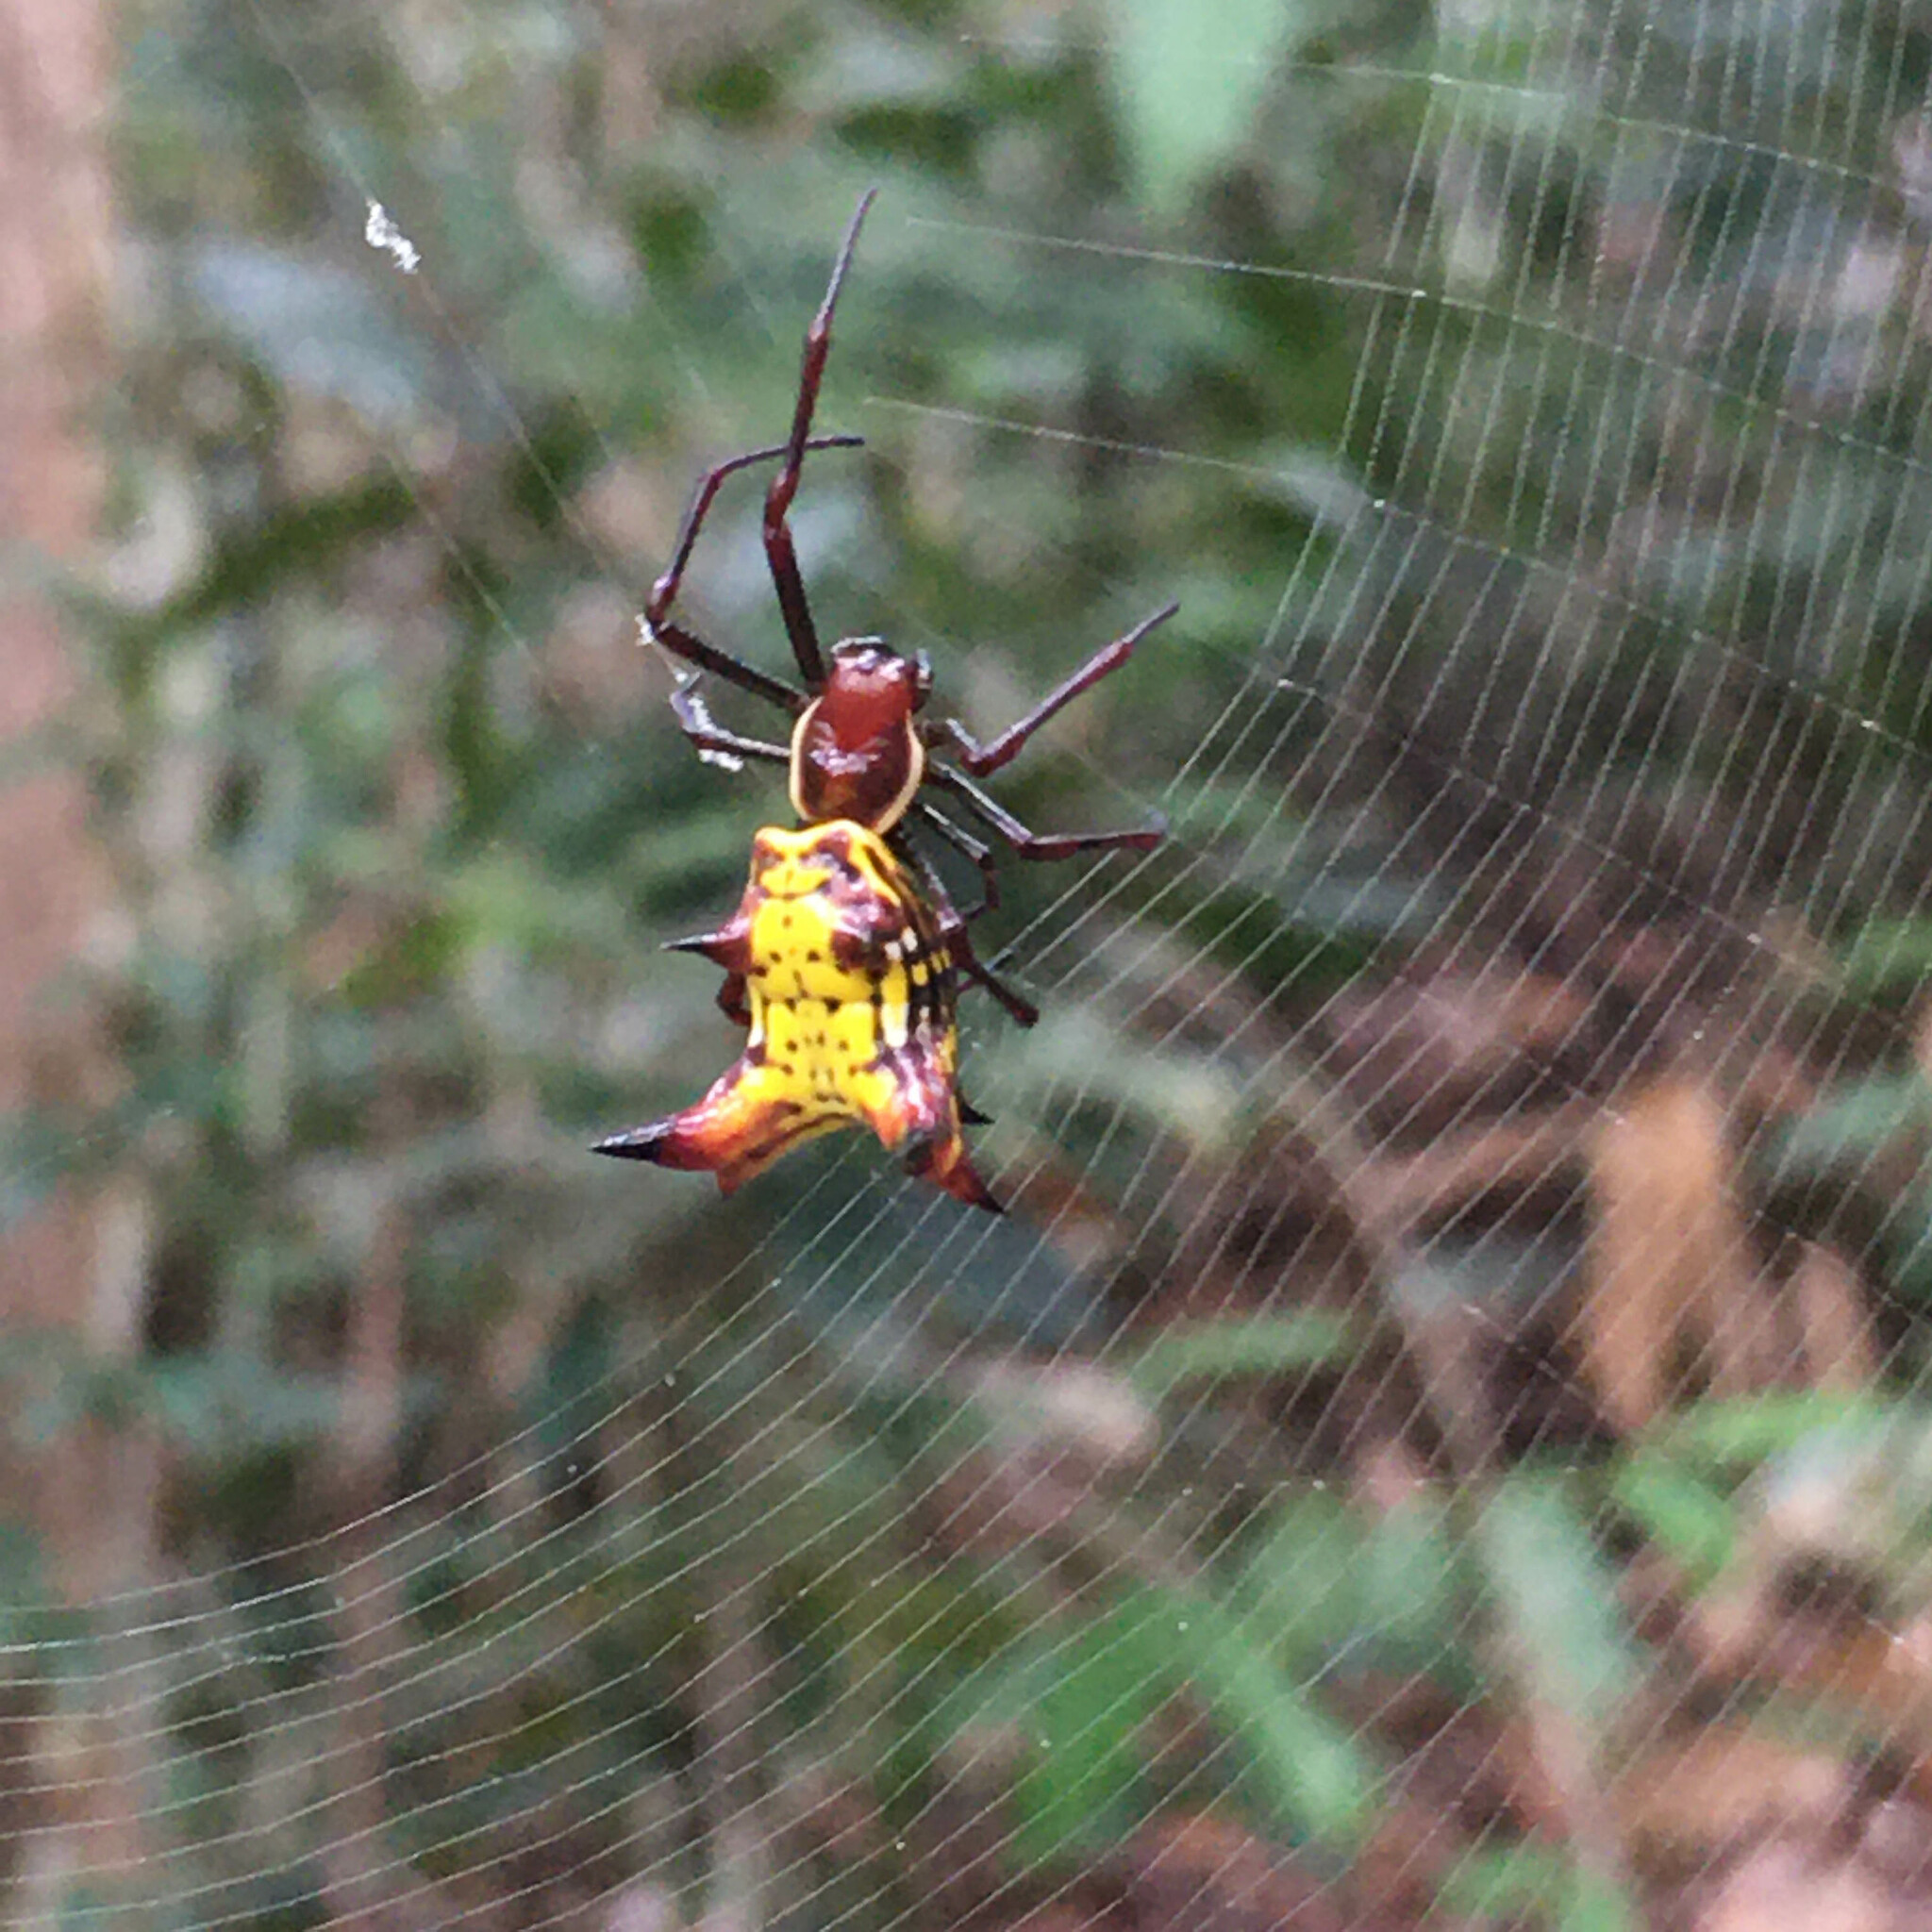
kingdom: Animalia
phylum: Arthropoda
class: Arachnida
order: Araneae
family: Araneidae
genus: Micrathena
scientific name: Micrathena fissispina
